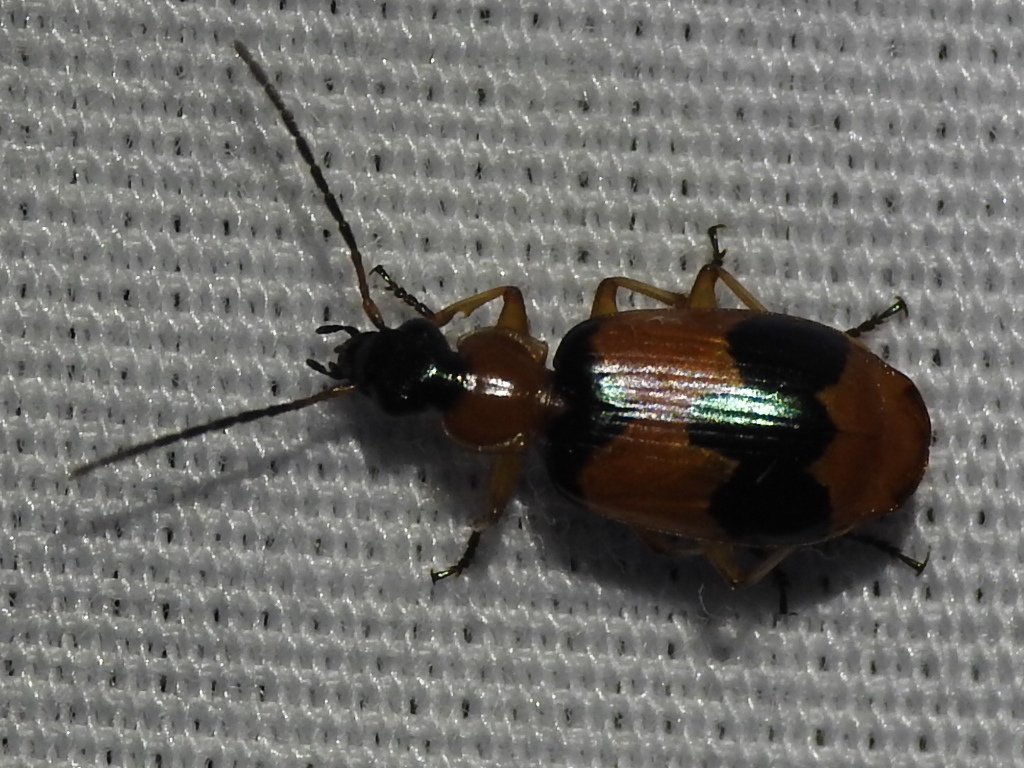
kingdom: Animalia
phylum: Arthropoda
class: Insecta
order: Coleoptera
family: Carabidae
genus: Lebia
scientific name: Lebia pulchella
